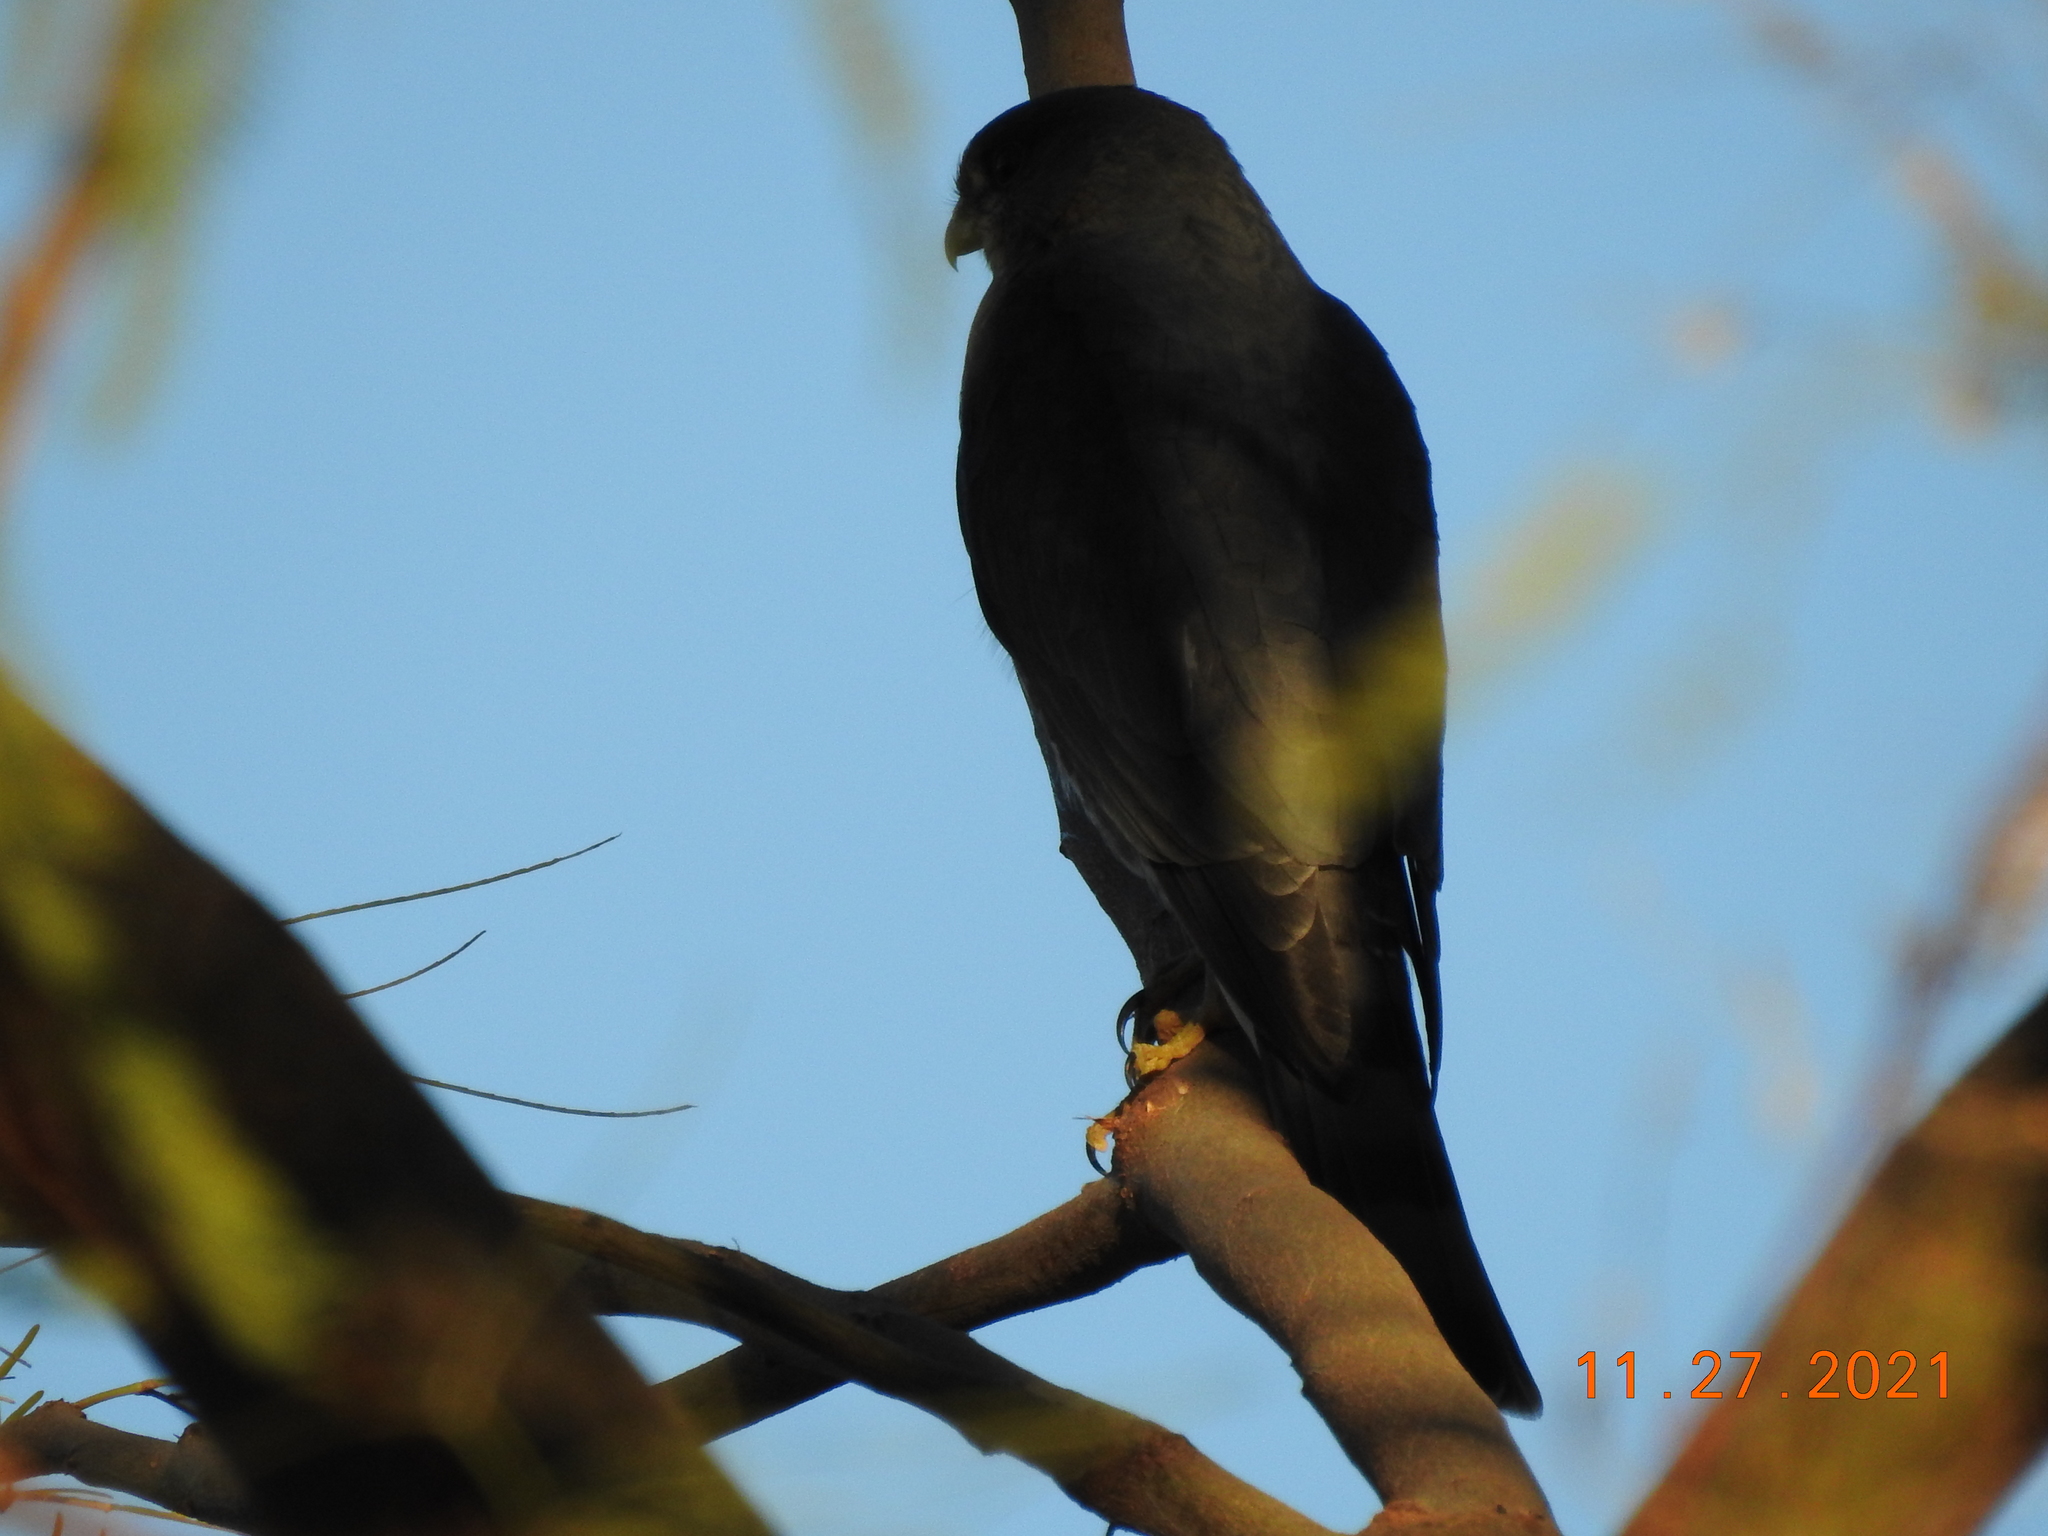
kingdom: Animalia
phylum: Chordata
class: Aves
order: Accipitriformes
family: Accipitridae
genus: Accipiter
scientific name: Accipiter striatus
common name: Sharp-shinned hawk
